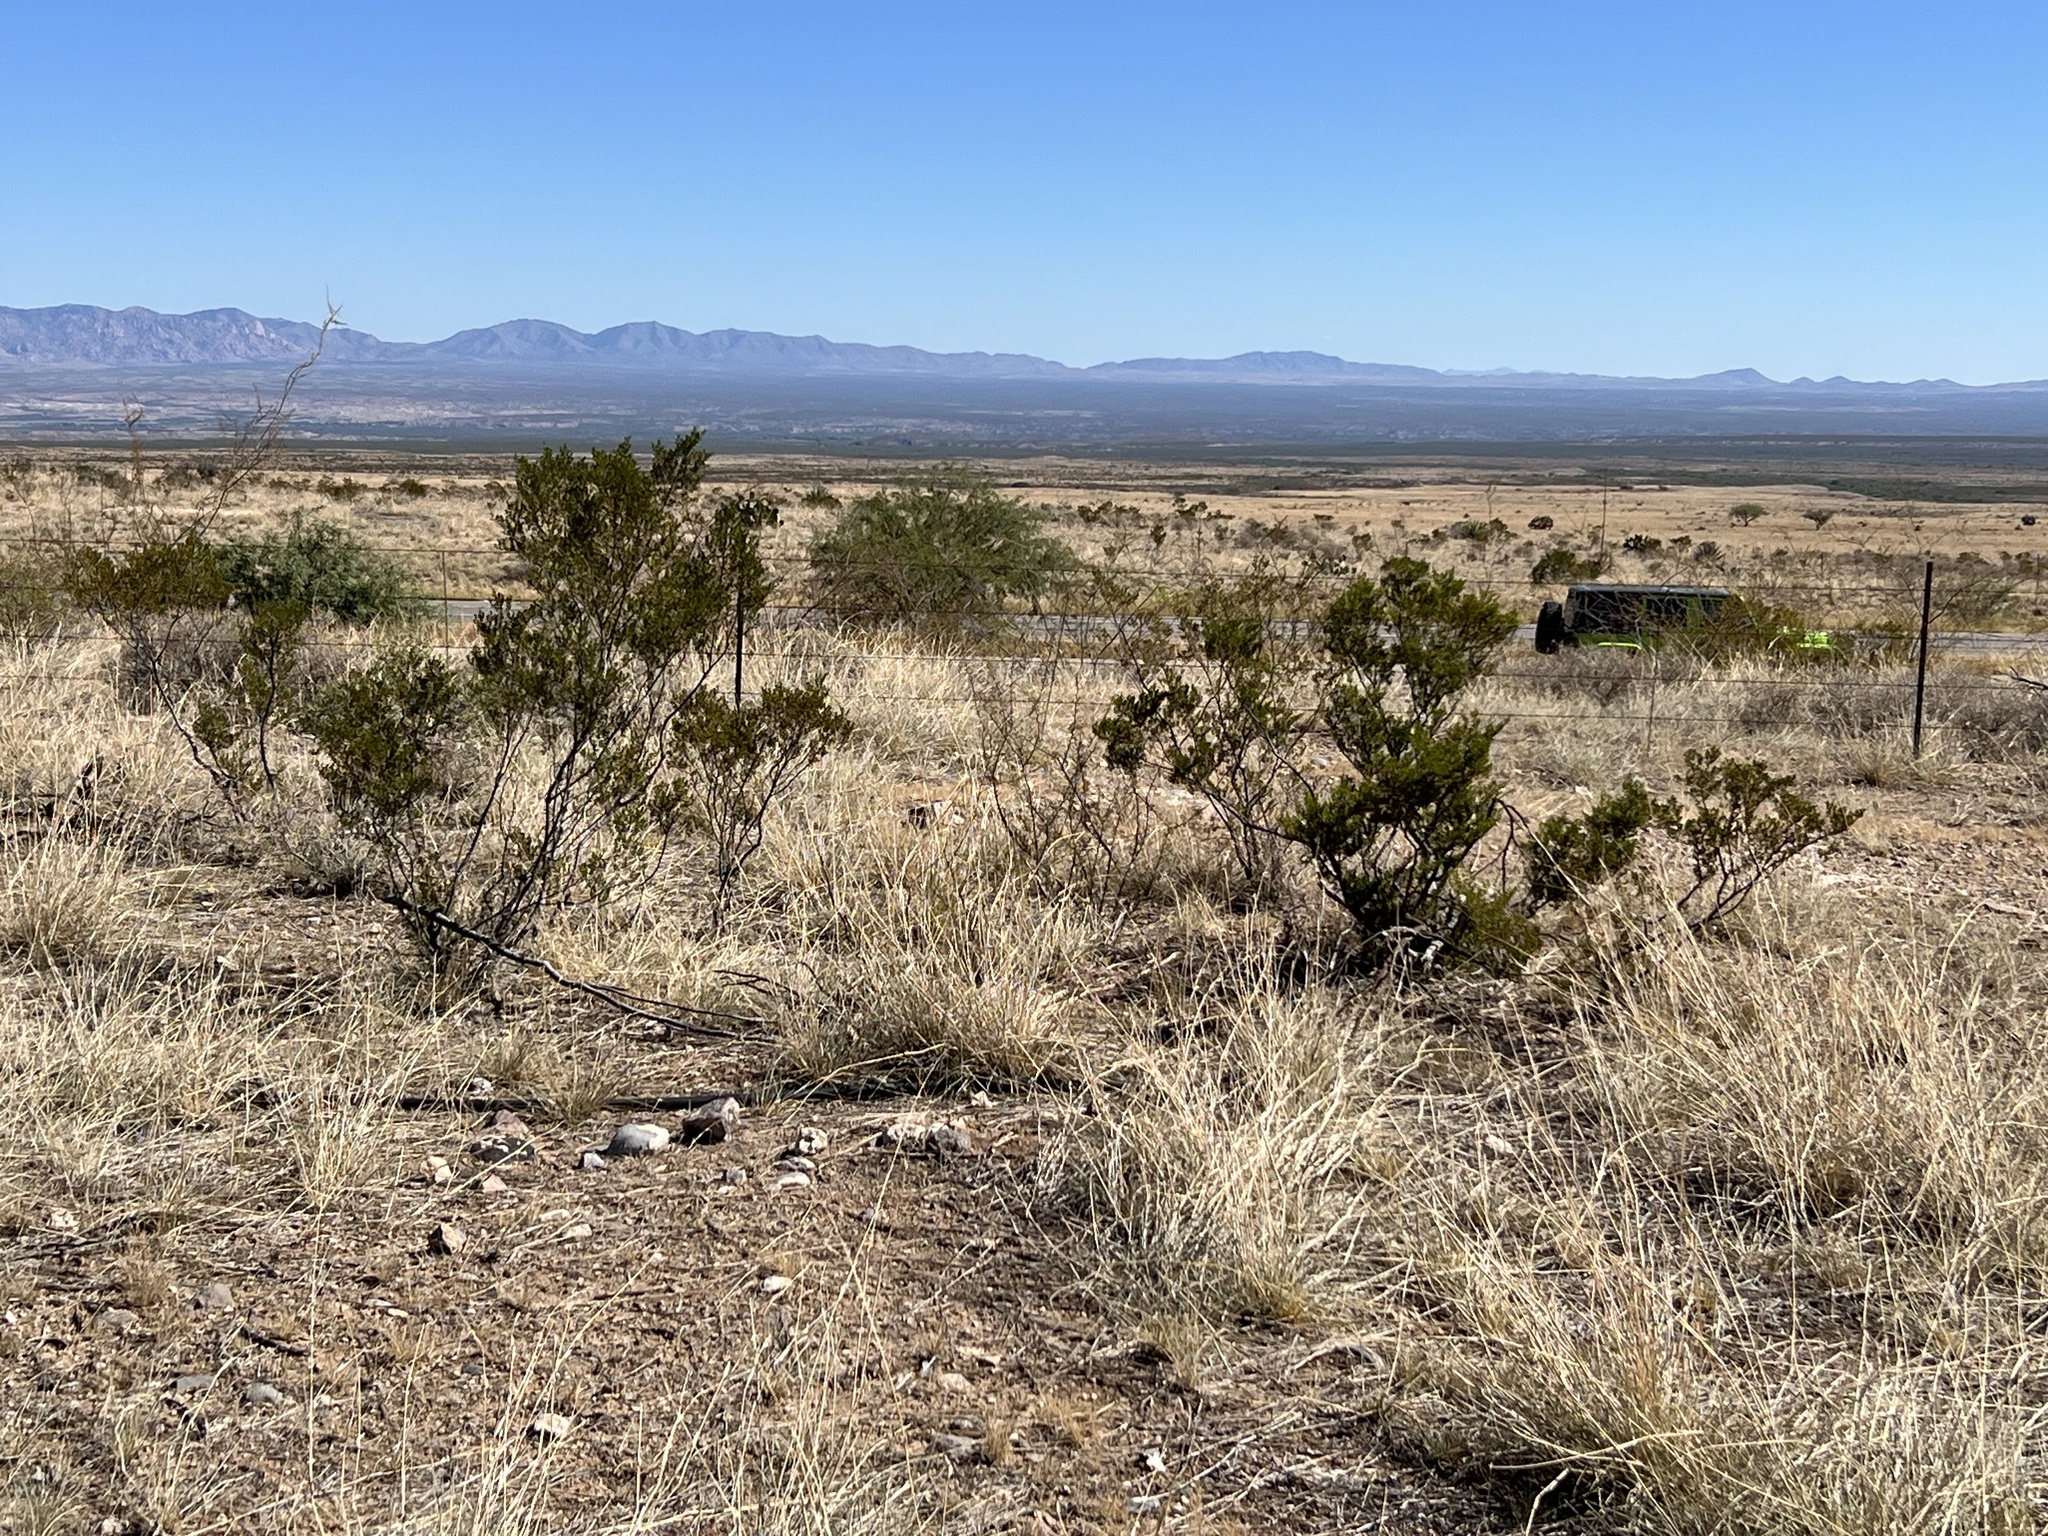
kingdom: Plantae
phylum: Tracheophyta
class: Magnoliopsida
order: Zygophyllales
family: Zygophyllaceae
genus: Larrea
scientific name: Larrea tridentata
